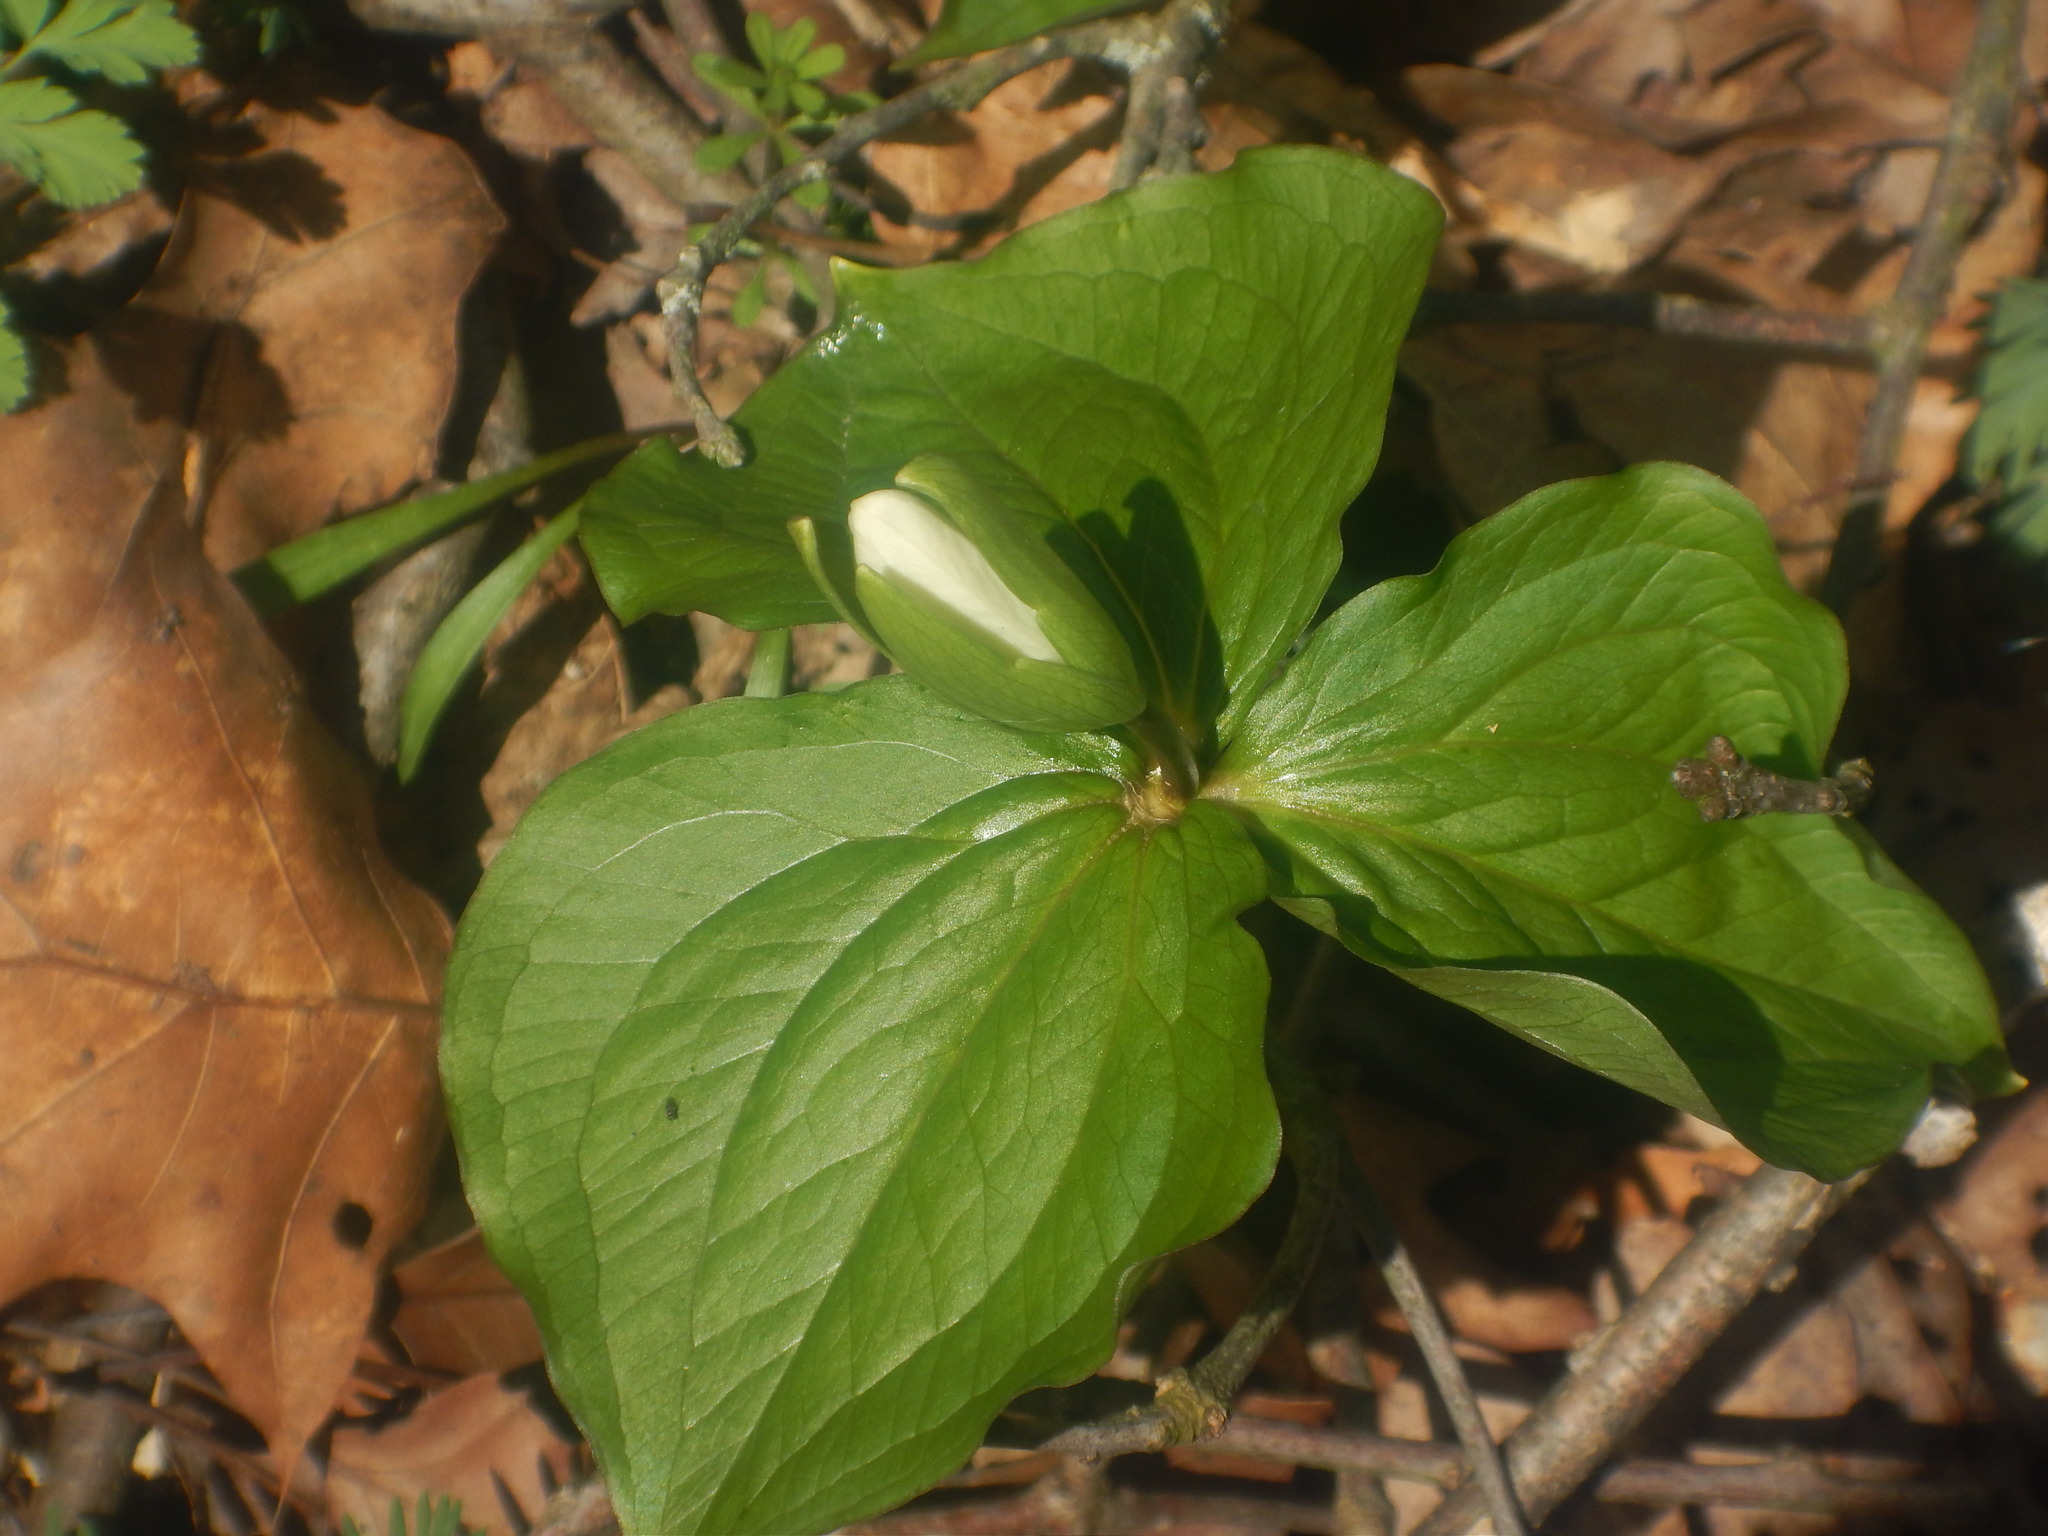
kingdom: Plantae
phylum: Tracheophyta
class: Liliopsida
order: Liliales
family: Melanthiaceae
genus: Trillium
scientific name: Trillium grandiflorum
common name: Great white trillium
